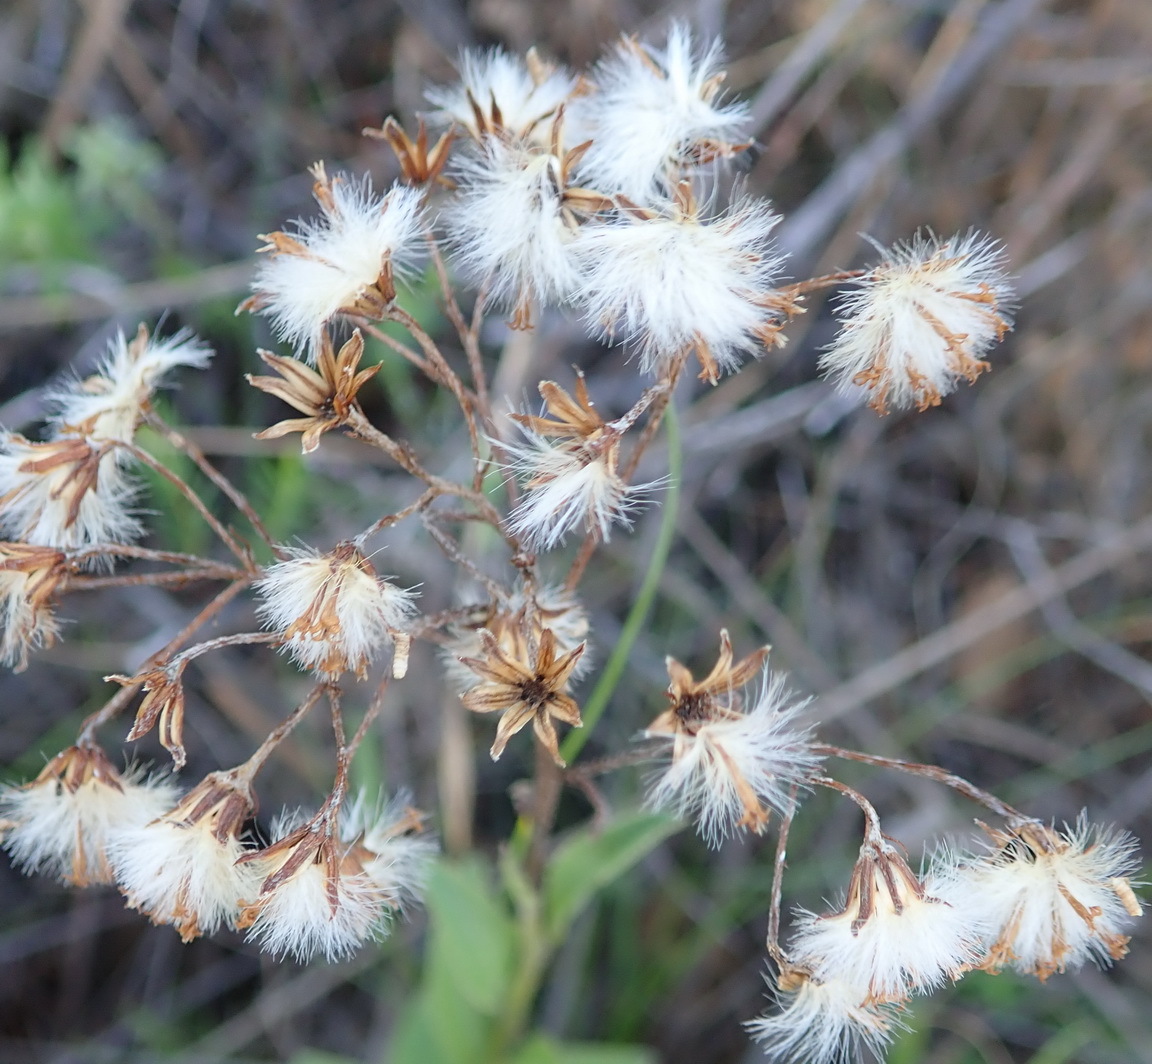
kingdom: Plantae
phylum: Tracheophyta
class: Magnoliopsida
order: Asterales
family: Asteraceae
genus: Senecio
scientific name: Senecio crenatus
